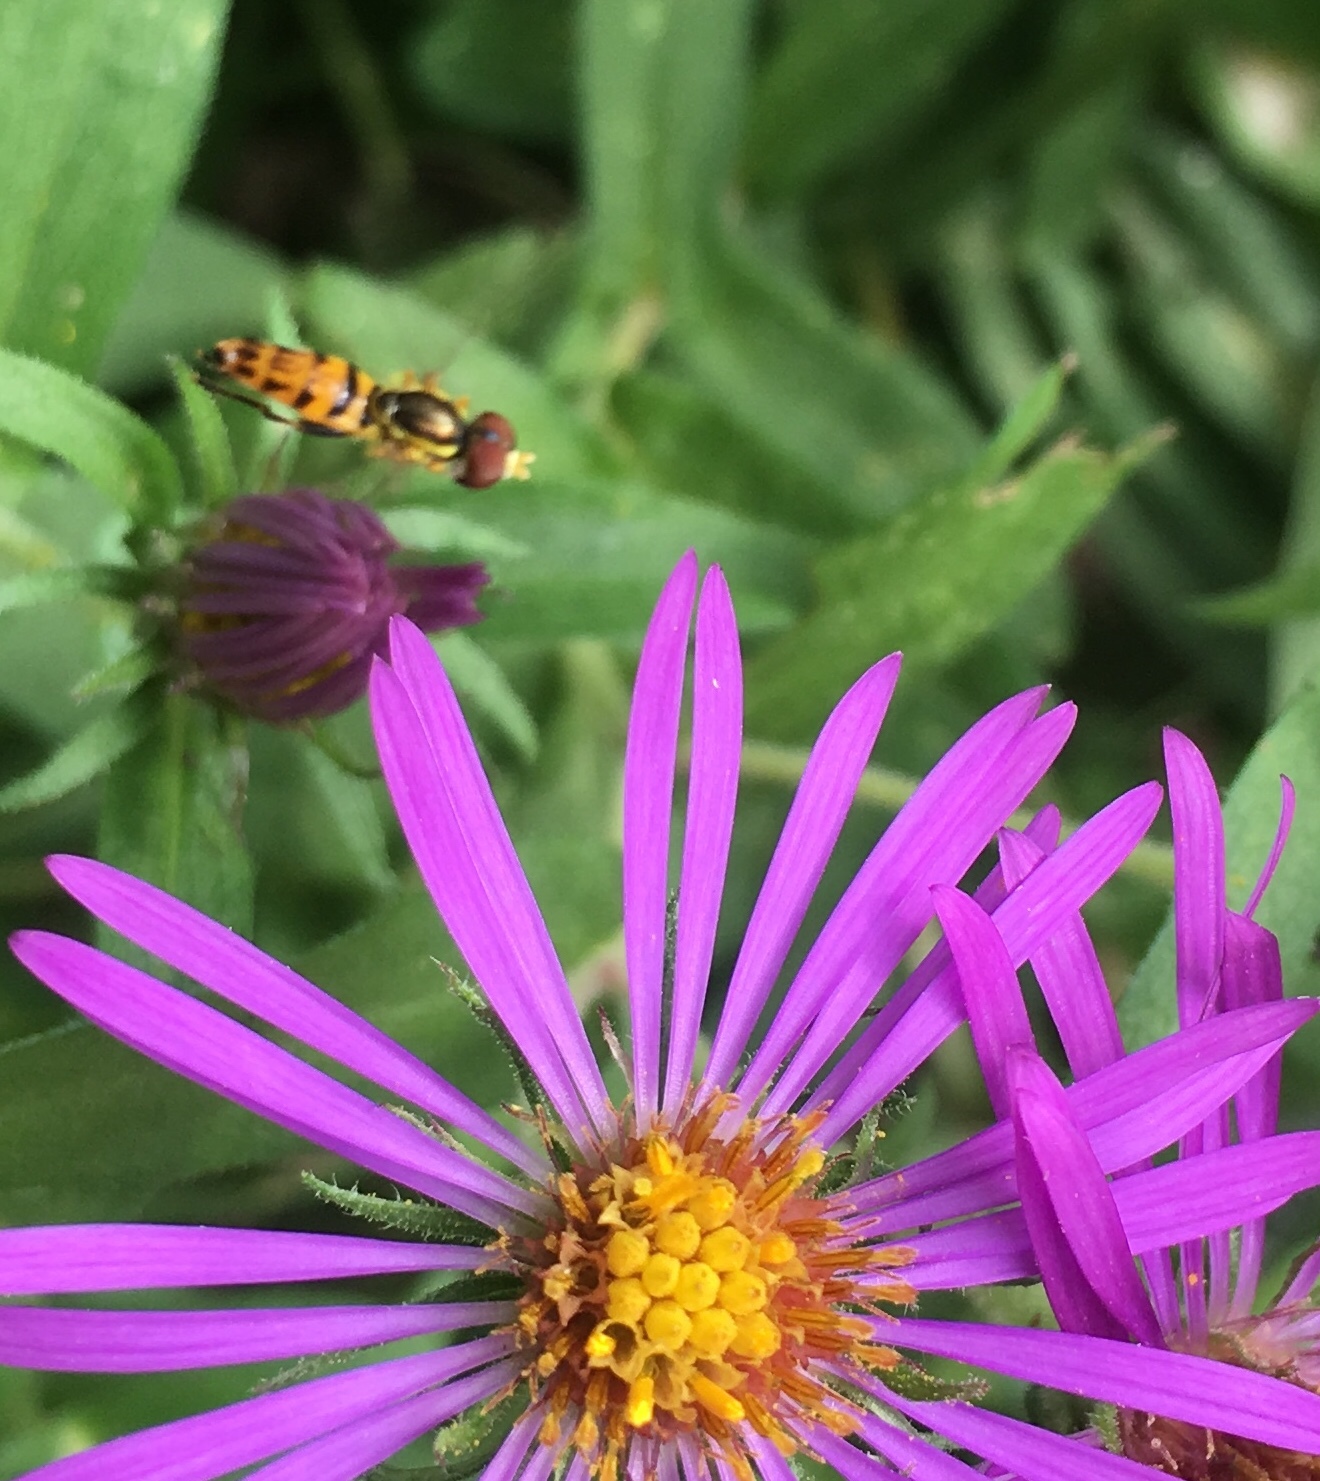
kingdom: Animalia
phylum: Arthropoda
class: Insecta
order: Diptera
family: Syrphidae
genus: Toxomerus
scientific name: Toxomerus geminatus
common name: Eastern calligrapher
